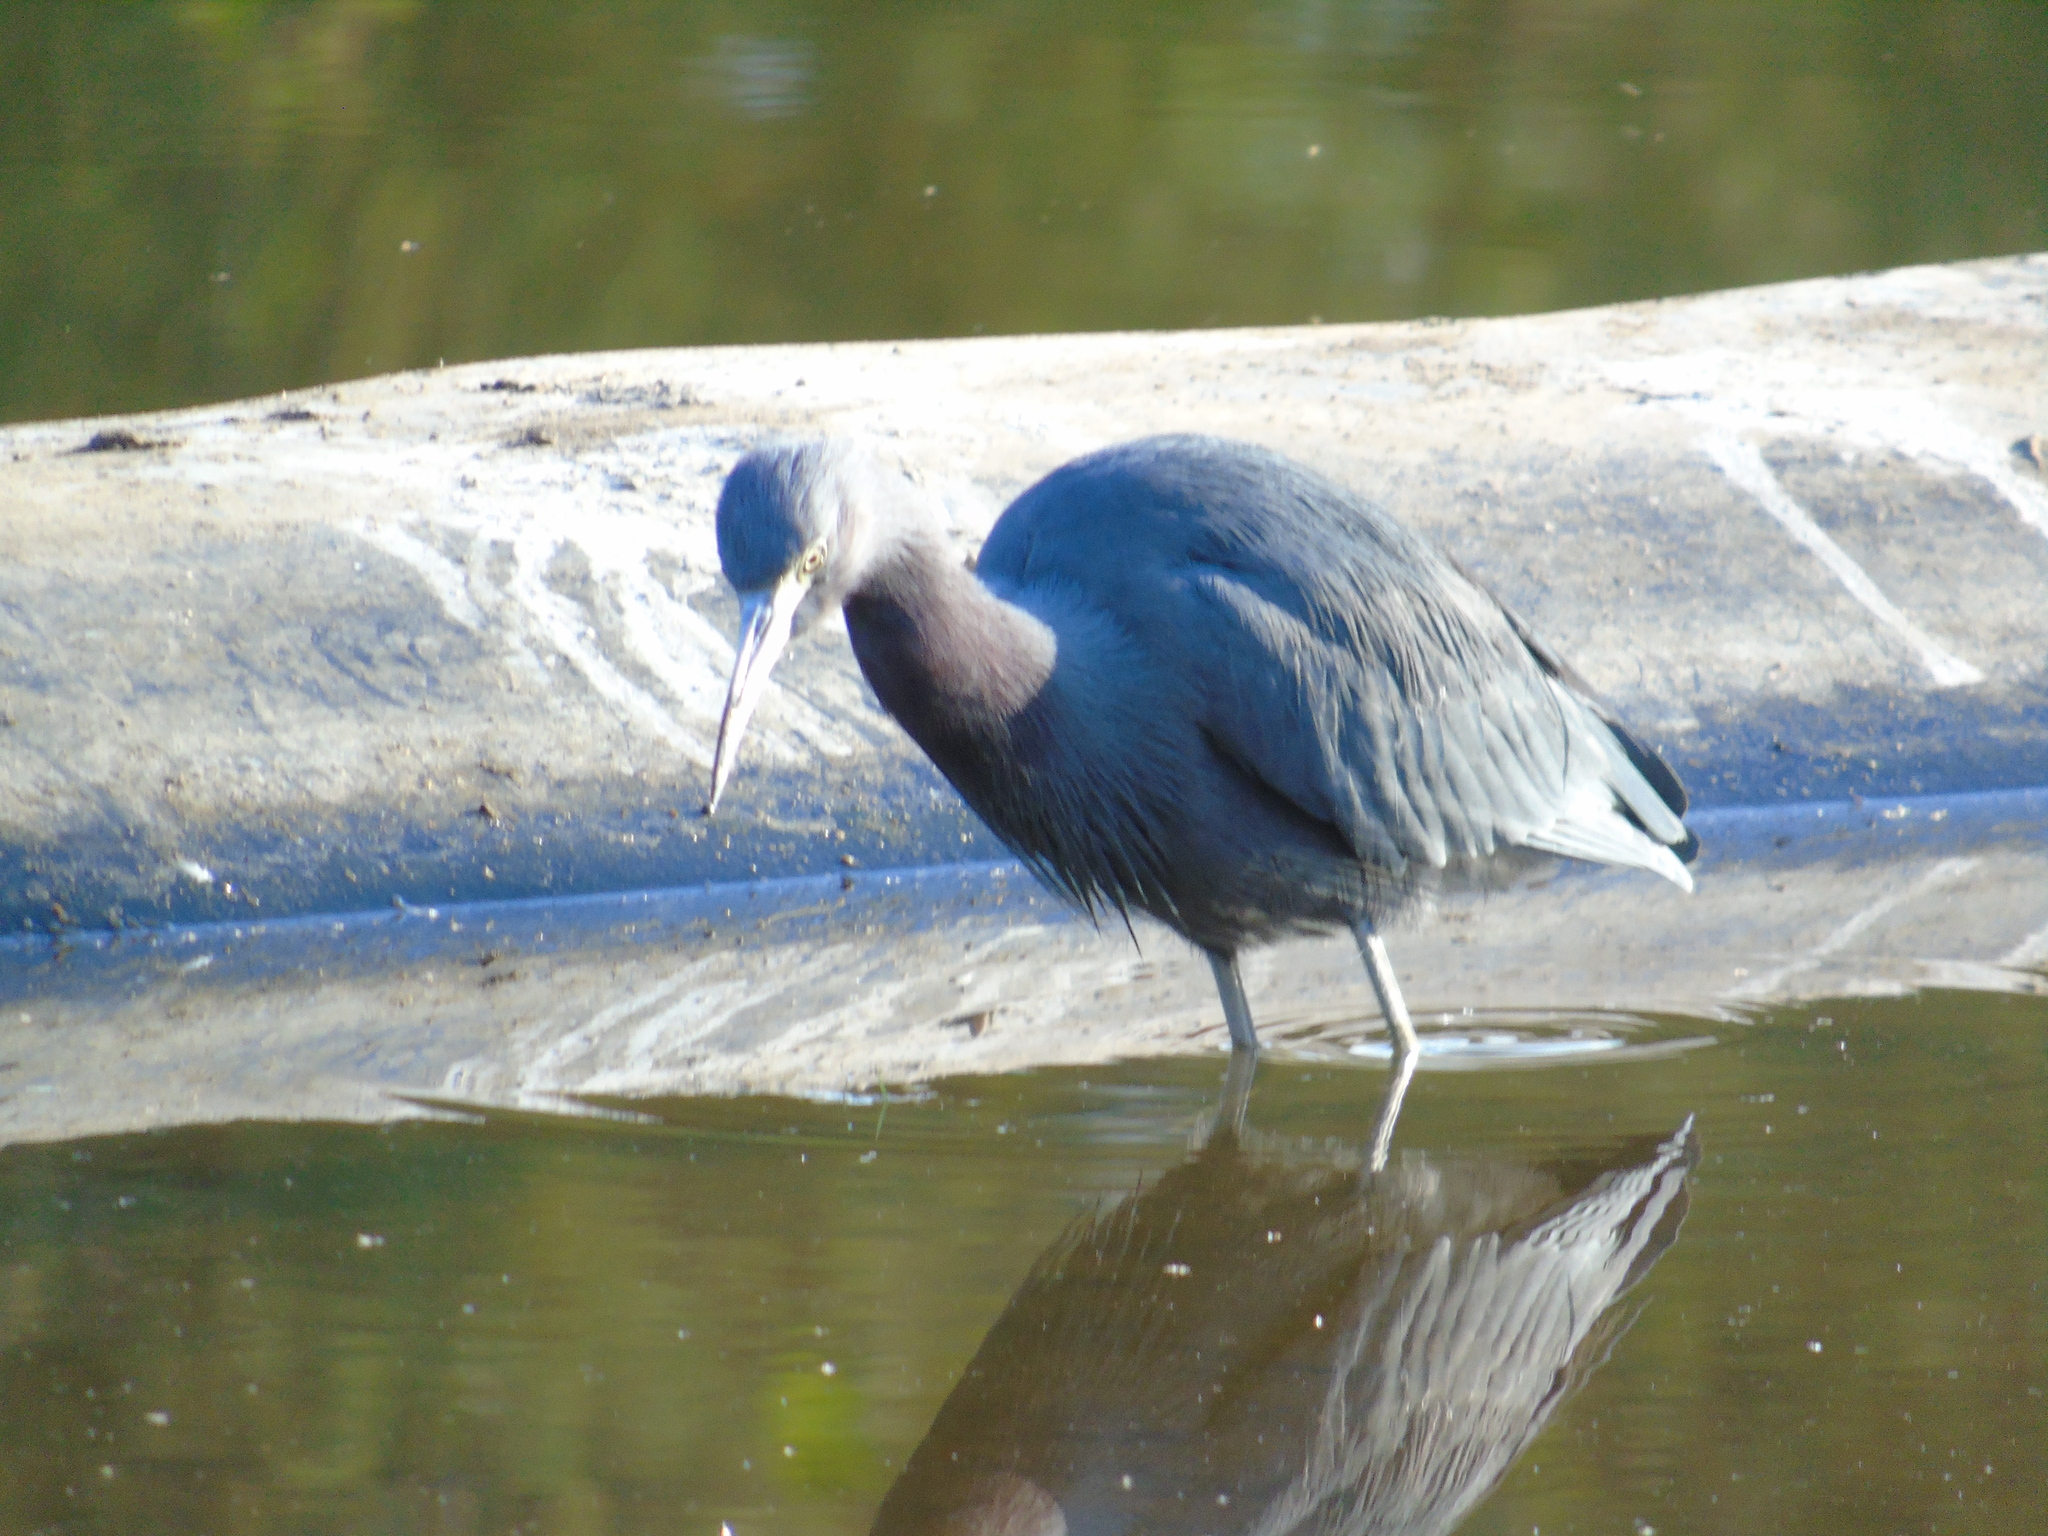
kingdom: Animalia
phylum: Chordata
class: Aves
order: Pelecaniformes
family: Ardeidae
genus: Egretta
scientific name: Egretta caerulea
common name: Little blue heron
